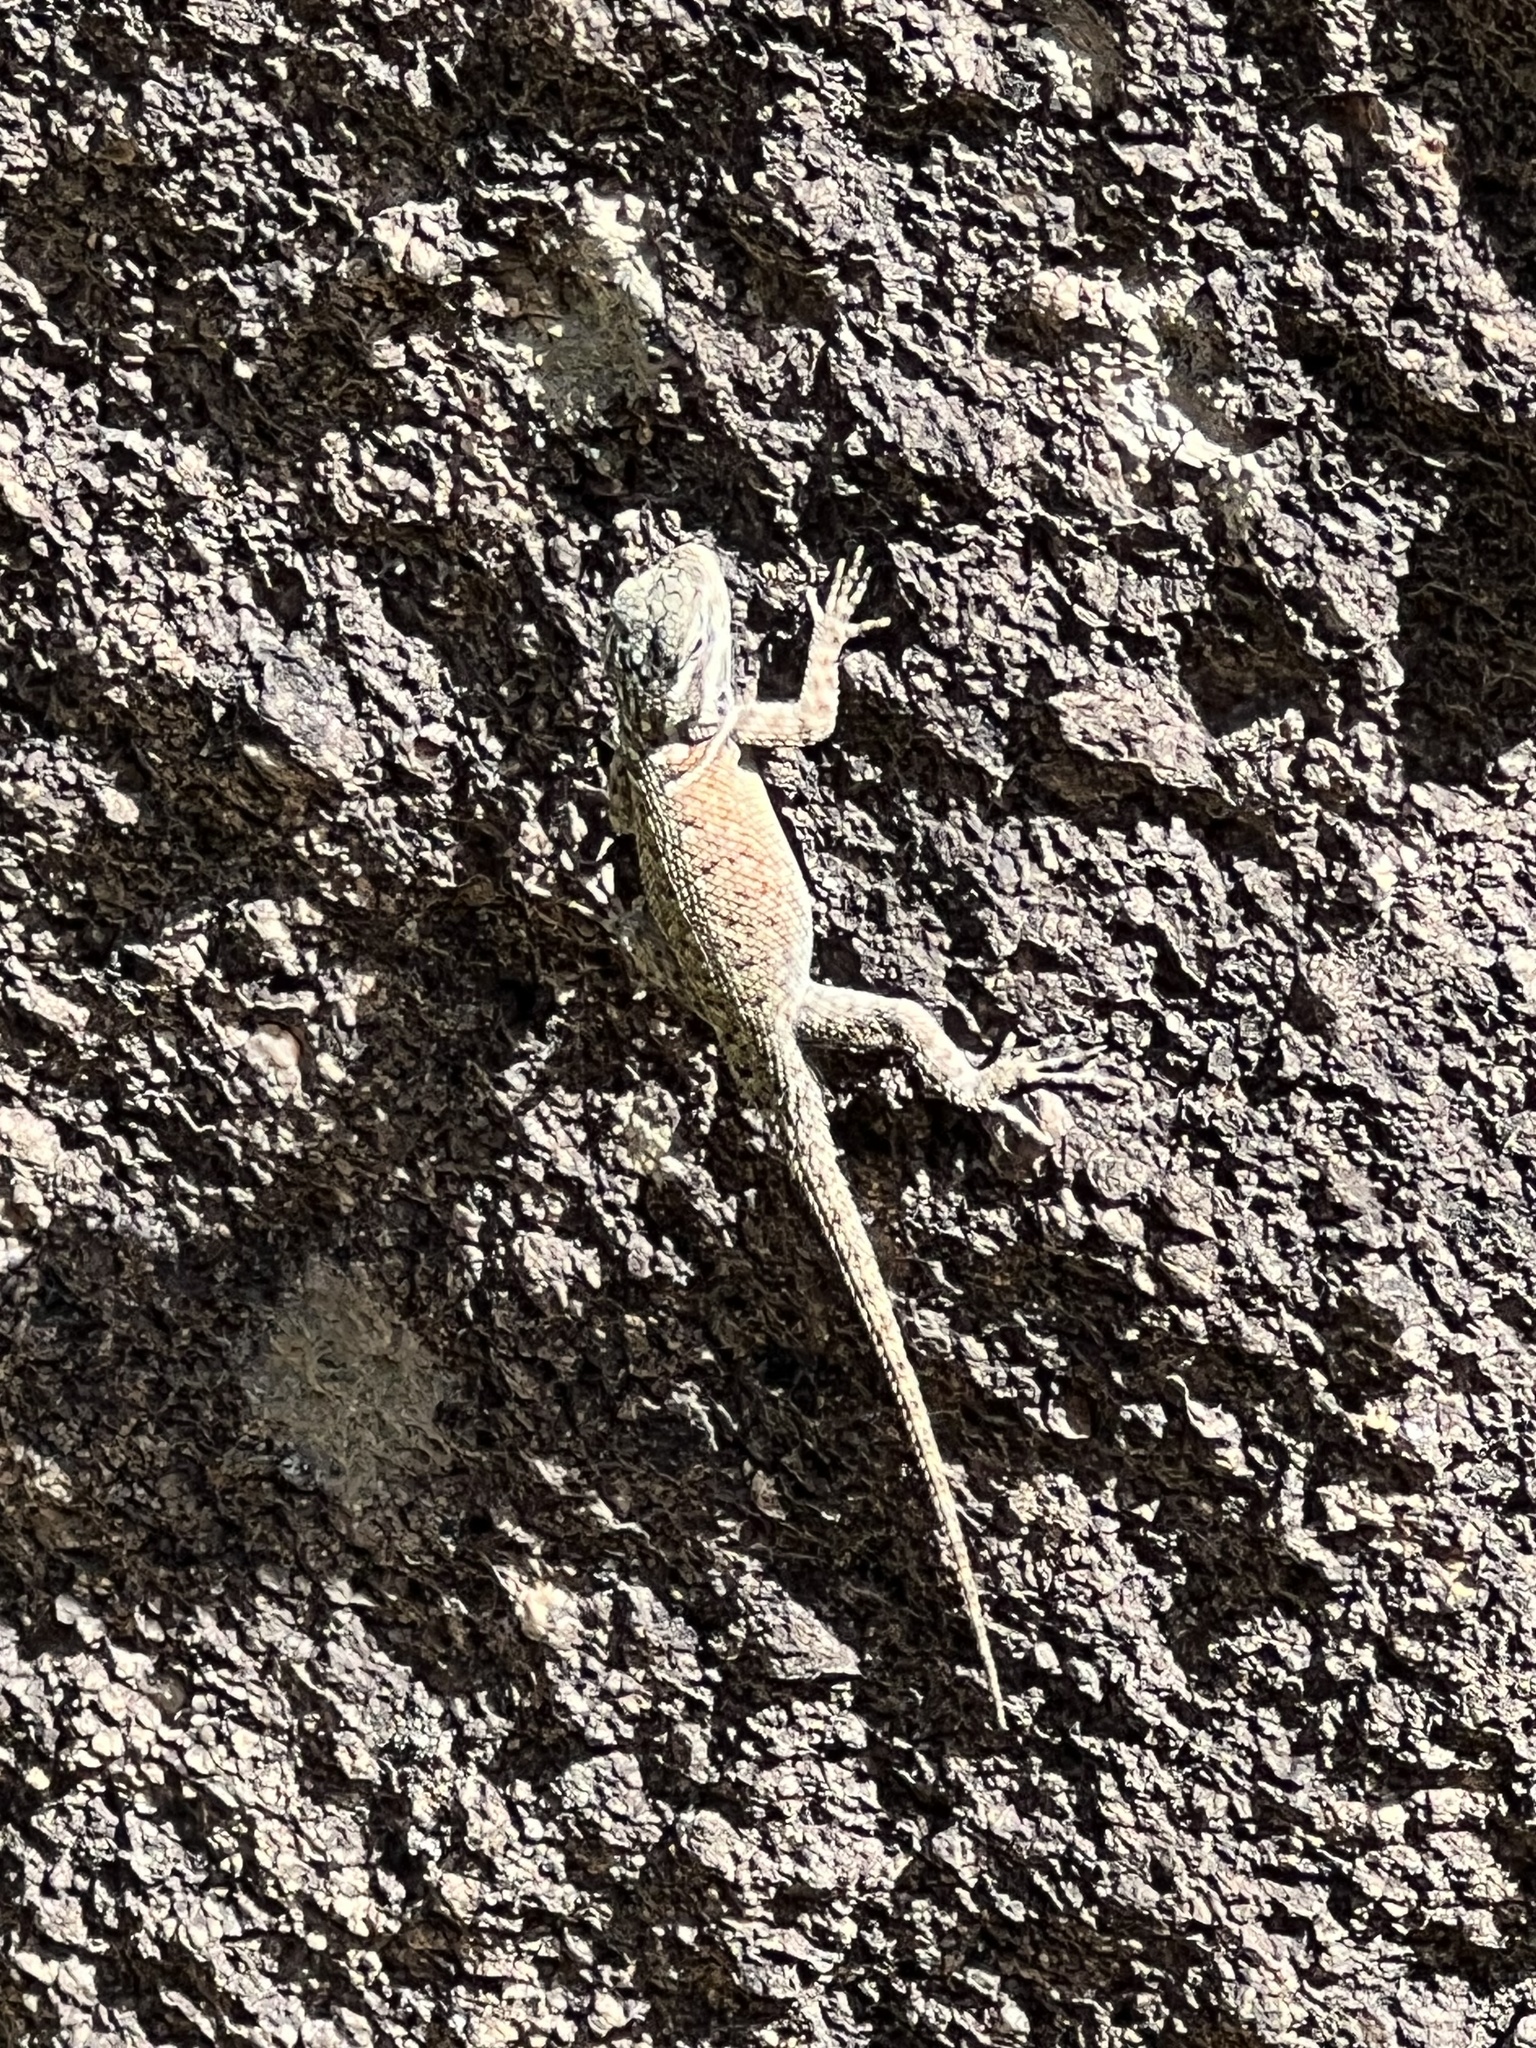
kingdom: Animalia
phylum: Chordata
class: Squamata
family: Phrynosomatidae
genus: Sceloporus
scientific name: Sceloporus jarrovii
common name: Yarrow's spiny lizard
